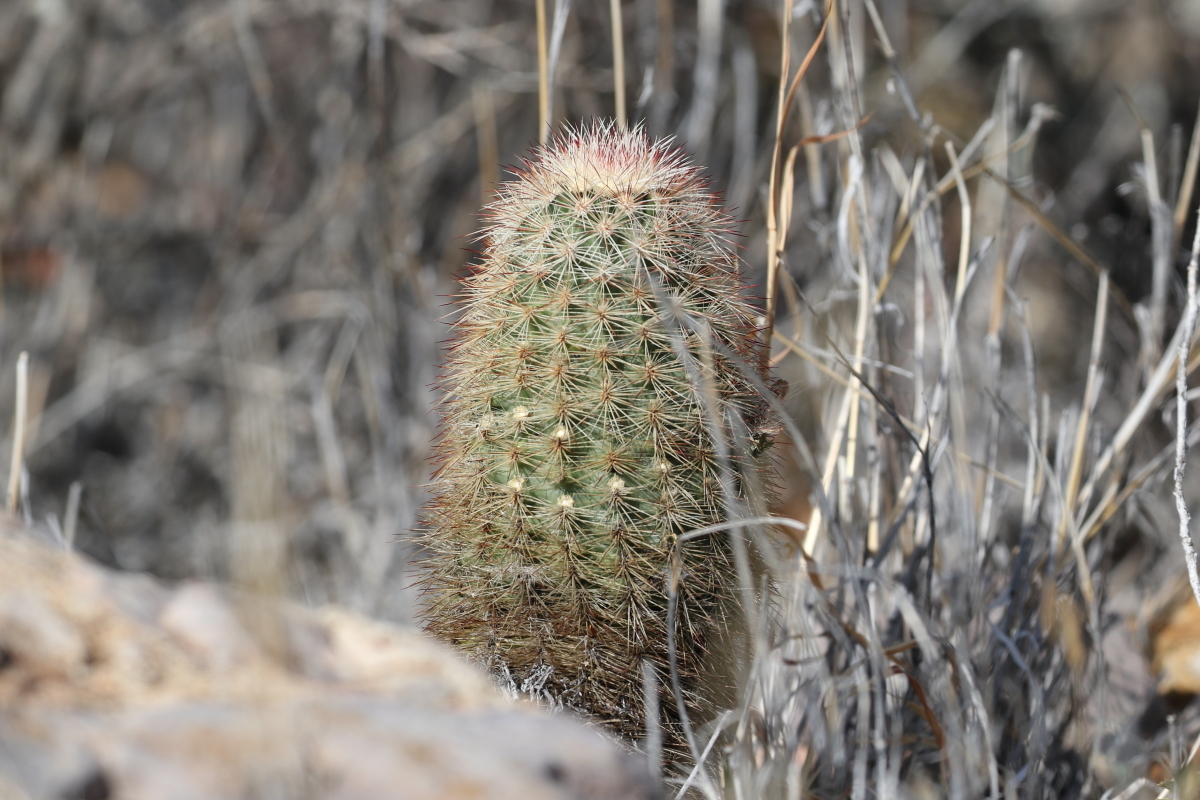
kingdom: Plantae
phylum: Tracheophyta
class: Magnoliopsida
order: Caryophyllales
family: Cactaceae
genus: Echinocereus
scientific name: Echinocereus russanthus
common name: Brownspine hedgehog cactus
